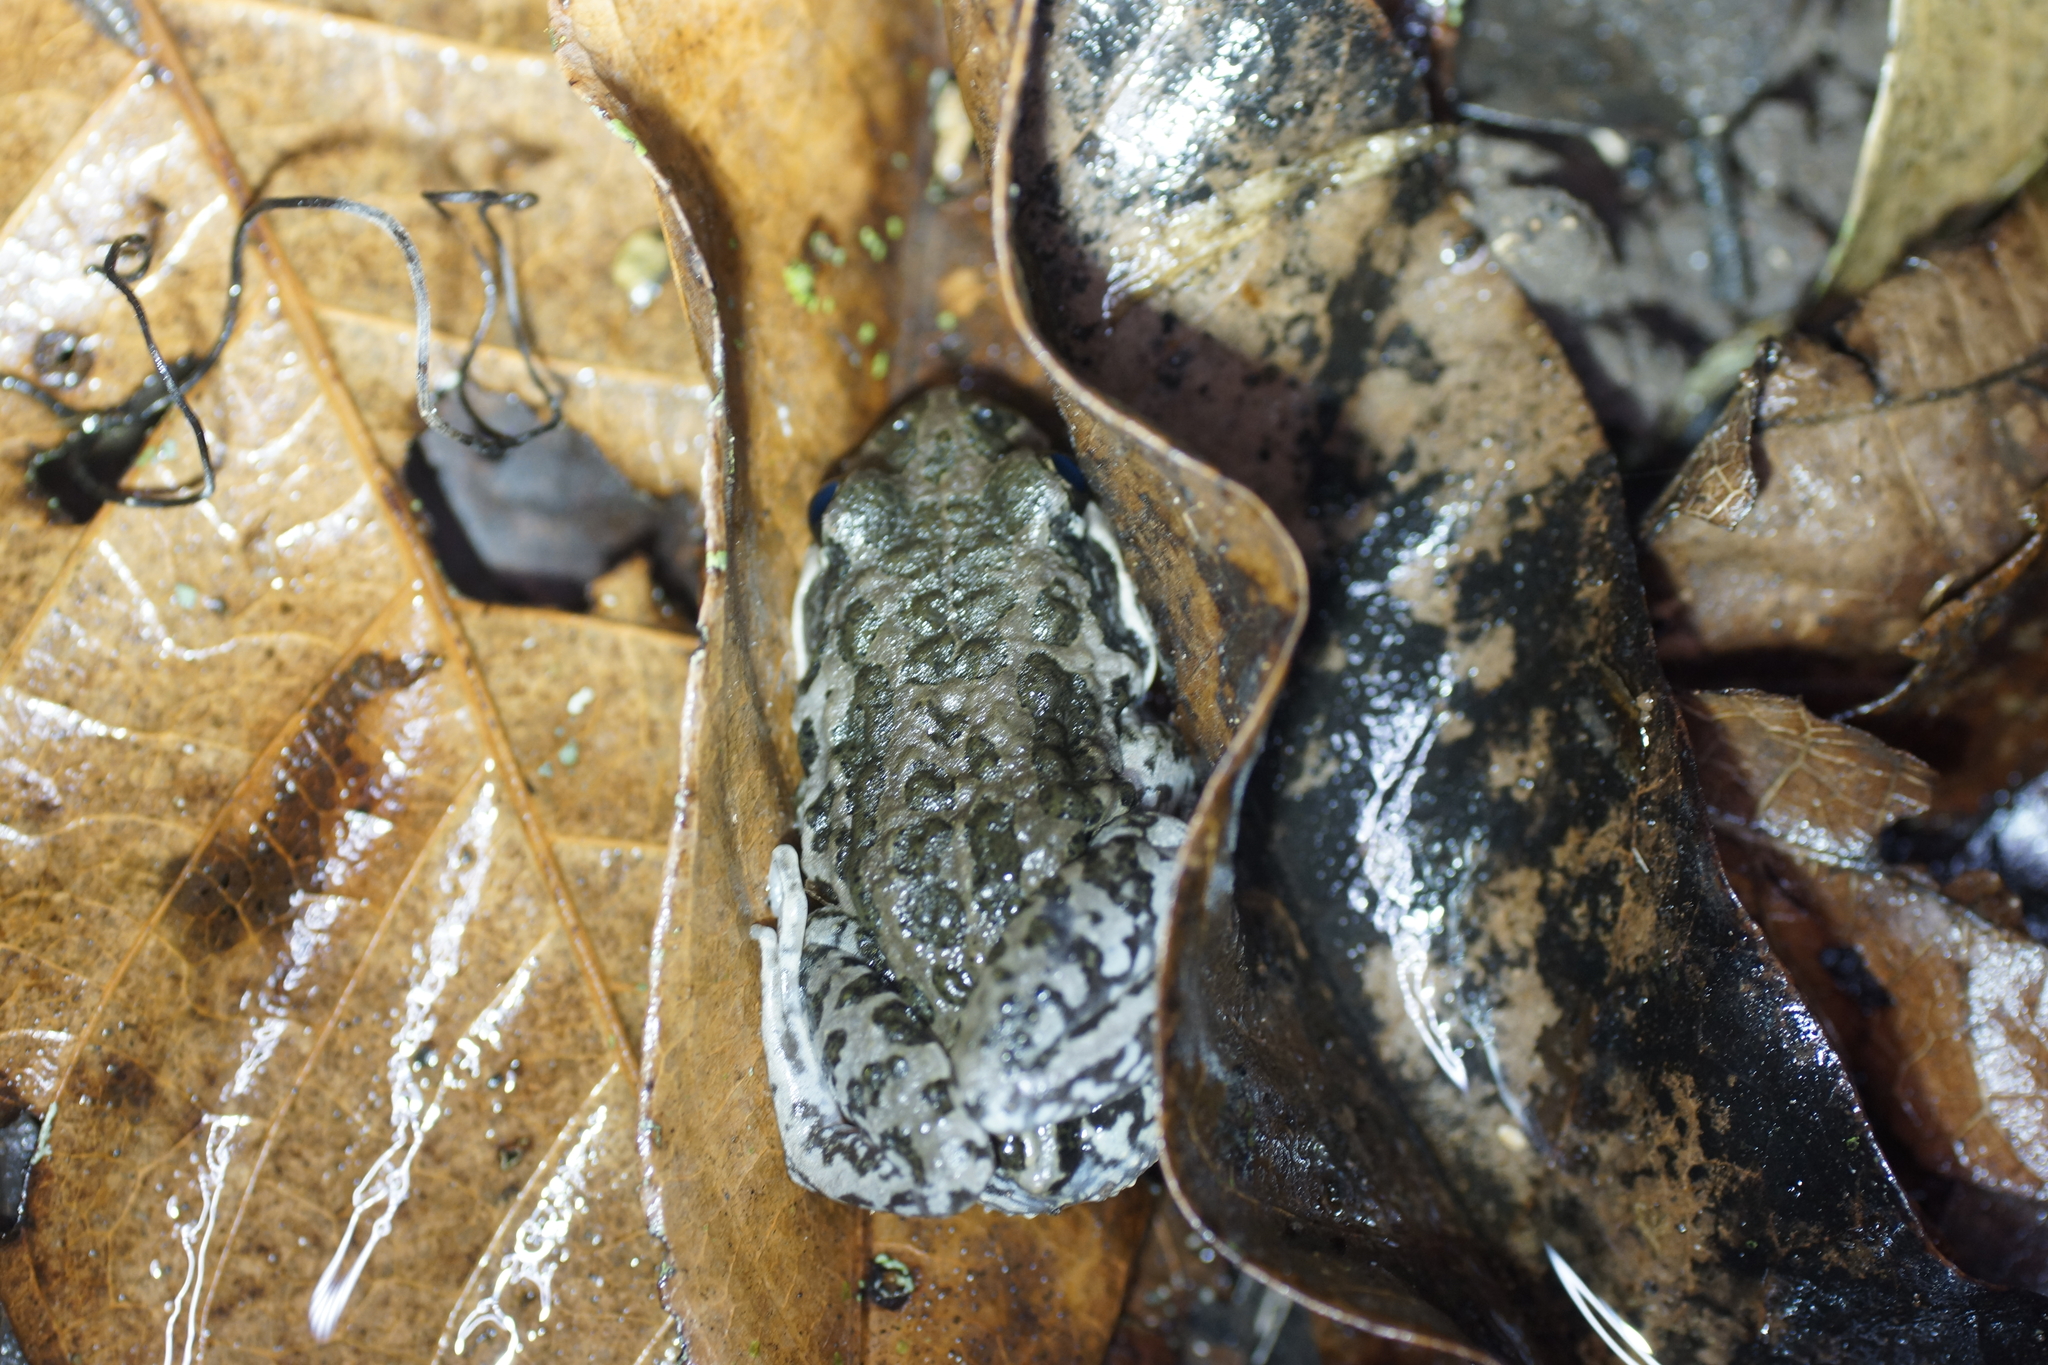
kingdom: Animalia
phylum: Chordata
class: Amphibia
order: Anura
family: Limnodynastidae
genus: Limnodynastes
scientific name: Limnodynastes convexiusculus
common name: Marbled frog
